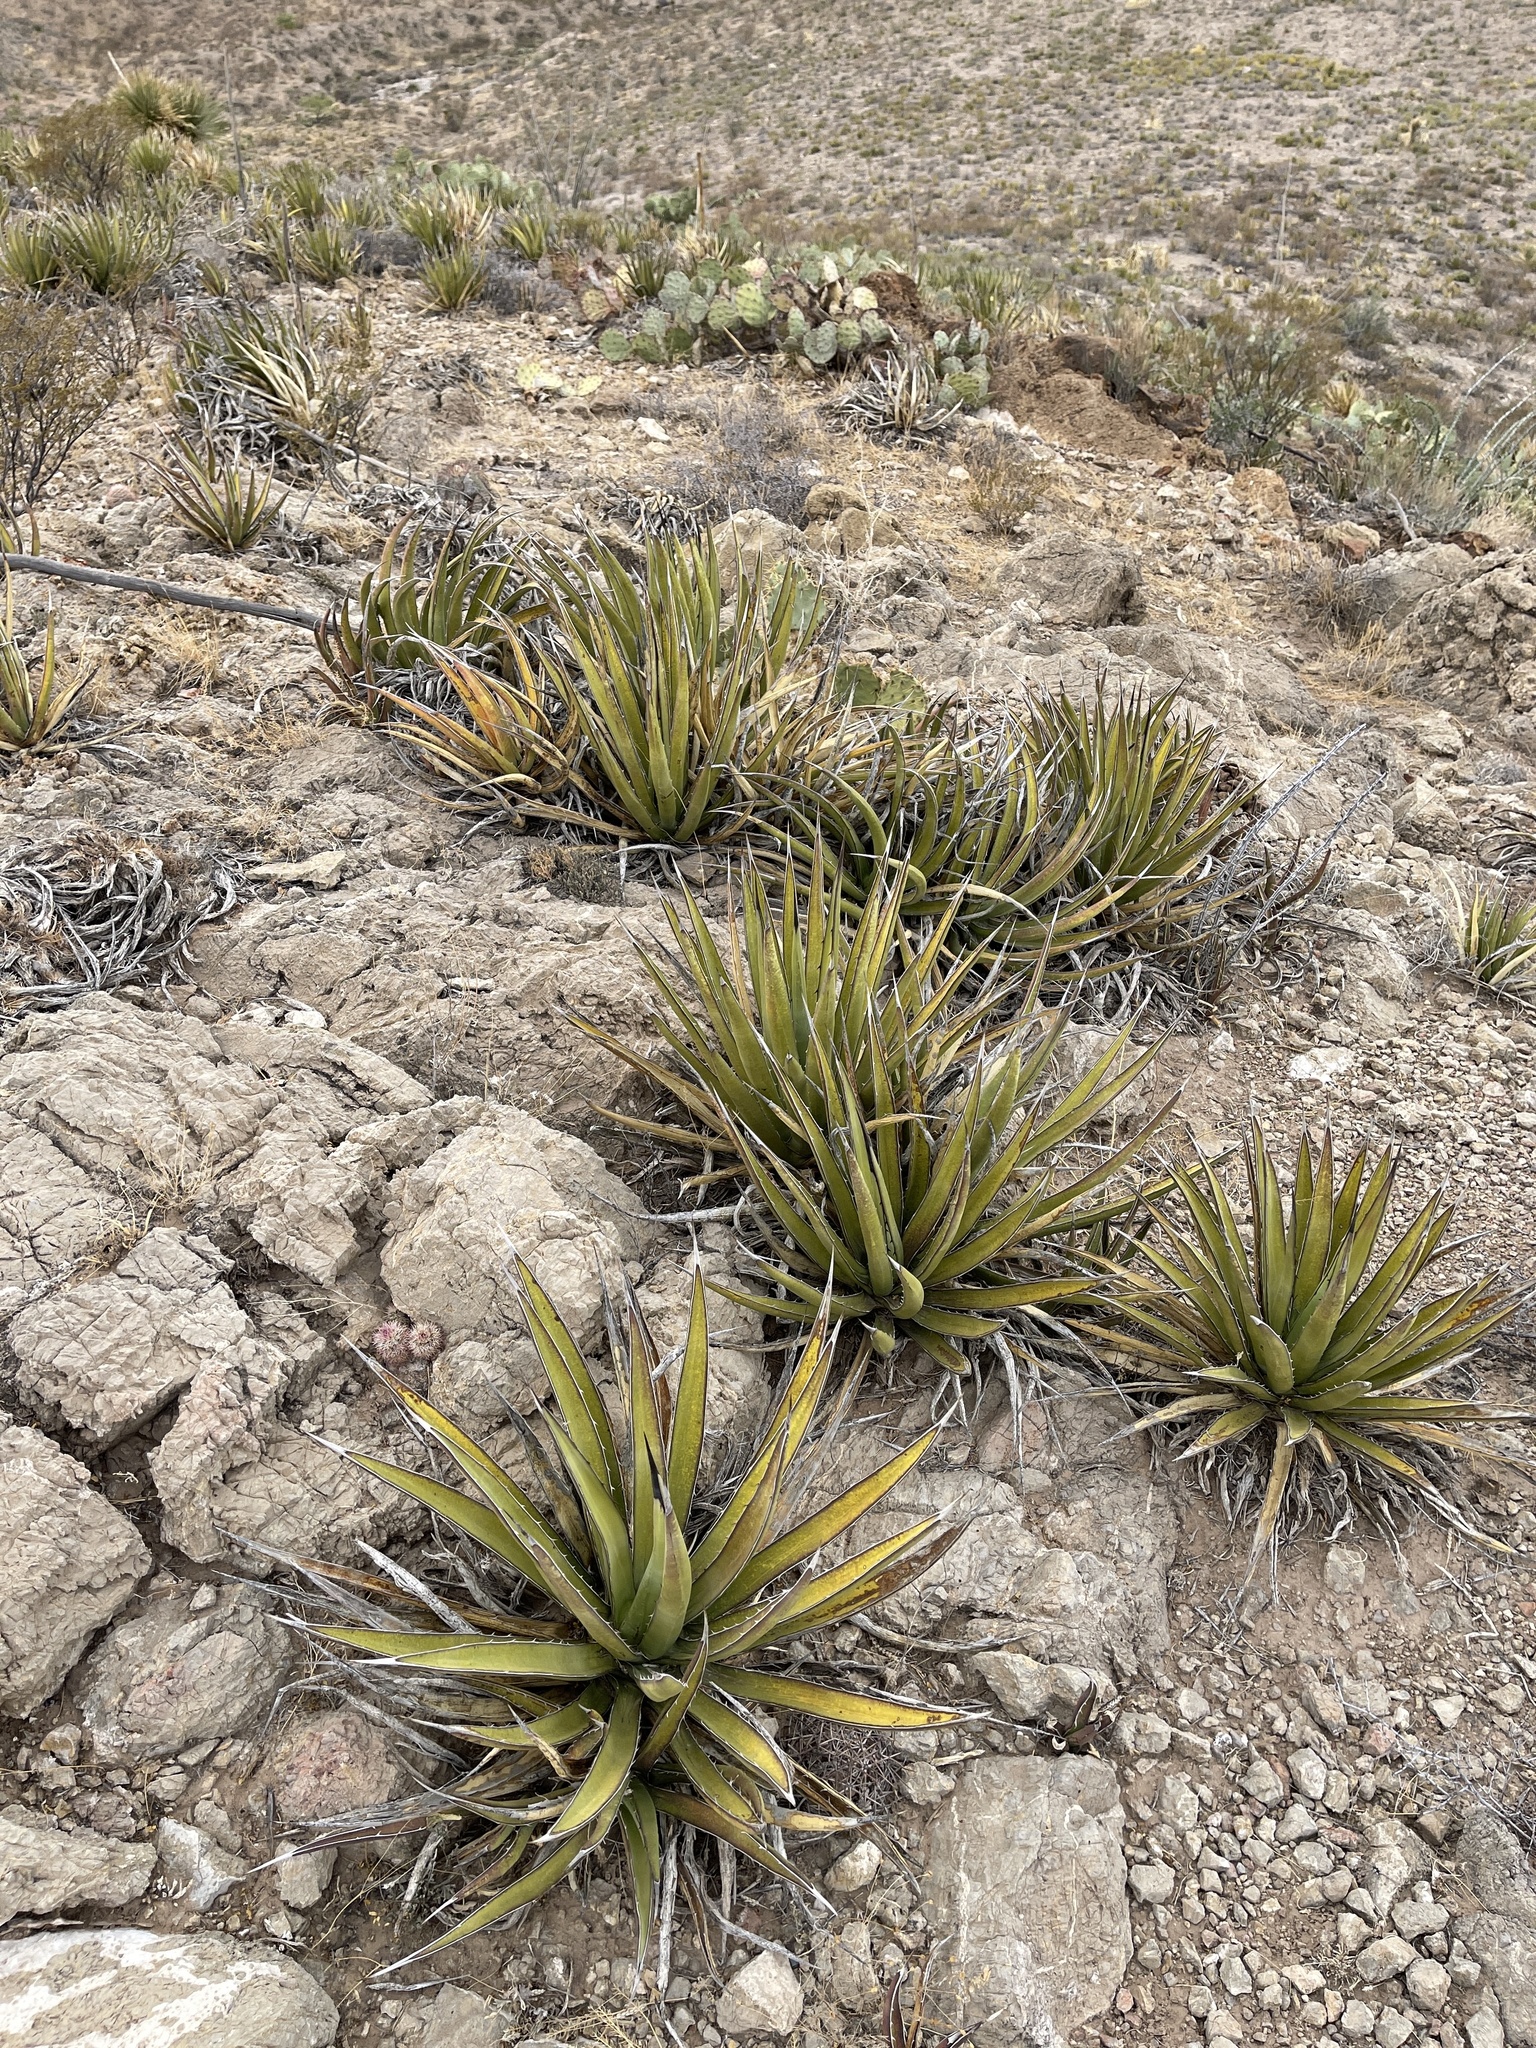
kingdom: Plantae
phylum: Tracheophyta
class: Liliopsida
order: Asparagales
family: Asparagaceae
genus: Agave
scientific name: Agave lechuguilla
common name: Lecheguilla agave
